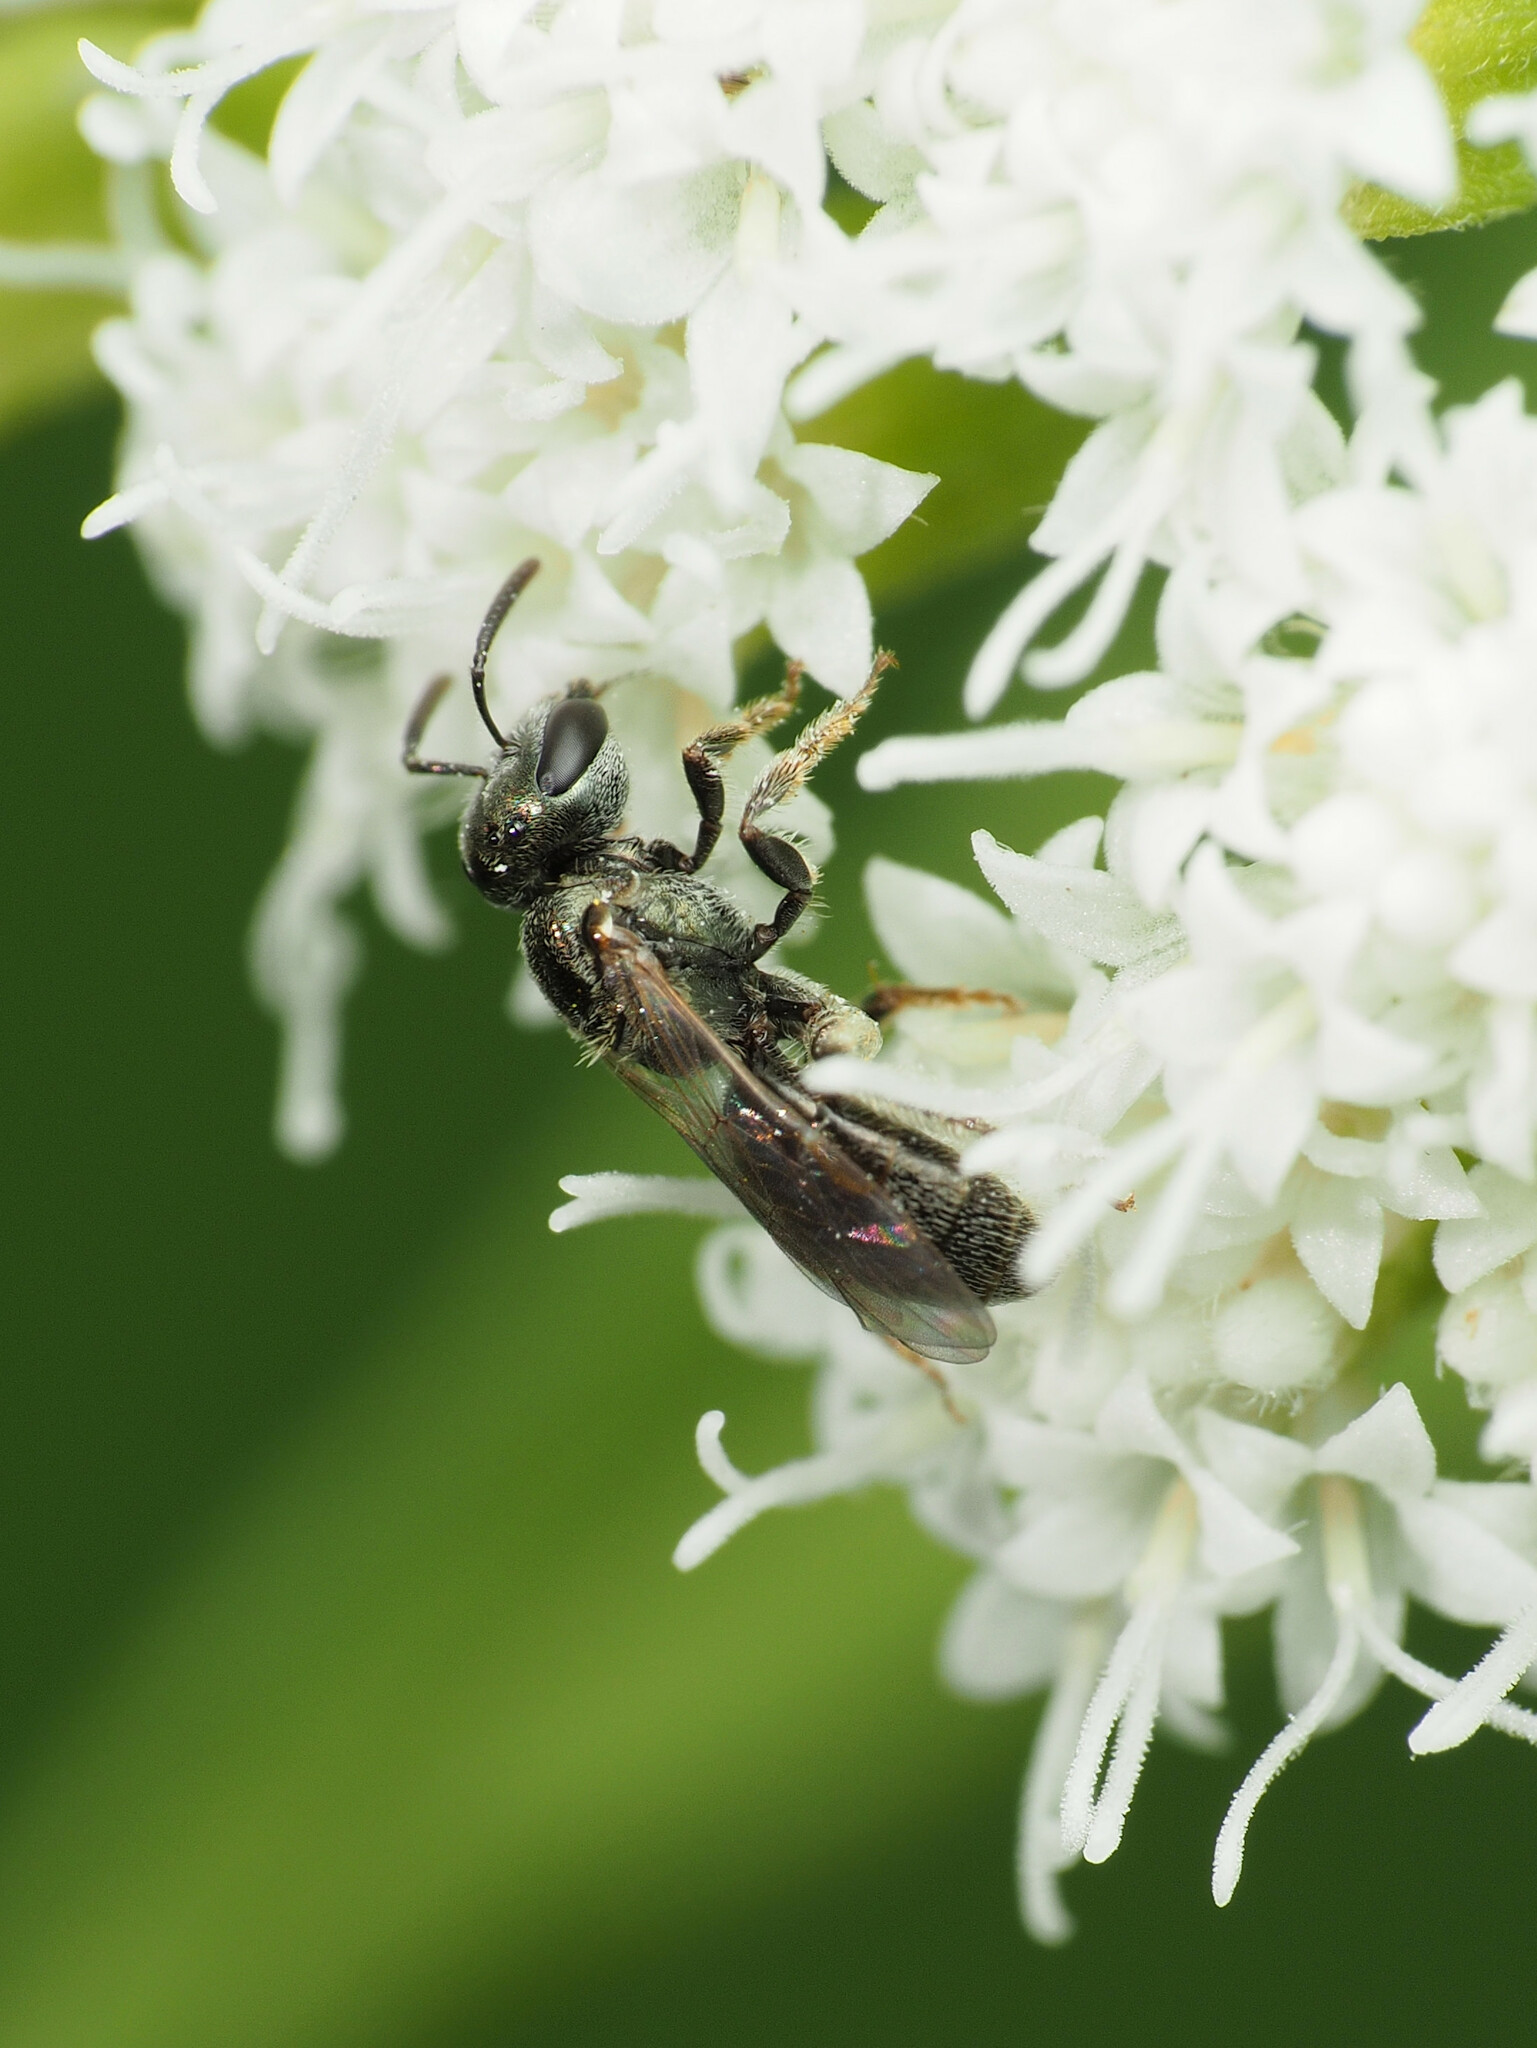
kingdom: Animalia
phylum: Arthropoda
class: Insecta
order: Hymenoptera
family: Halictidae
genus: Lasioglossum
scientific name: Lasioglossum imitatum
